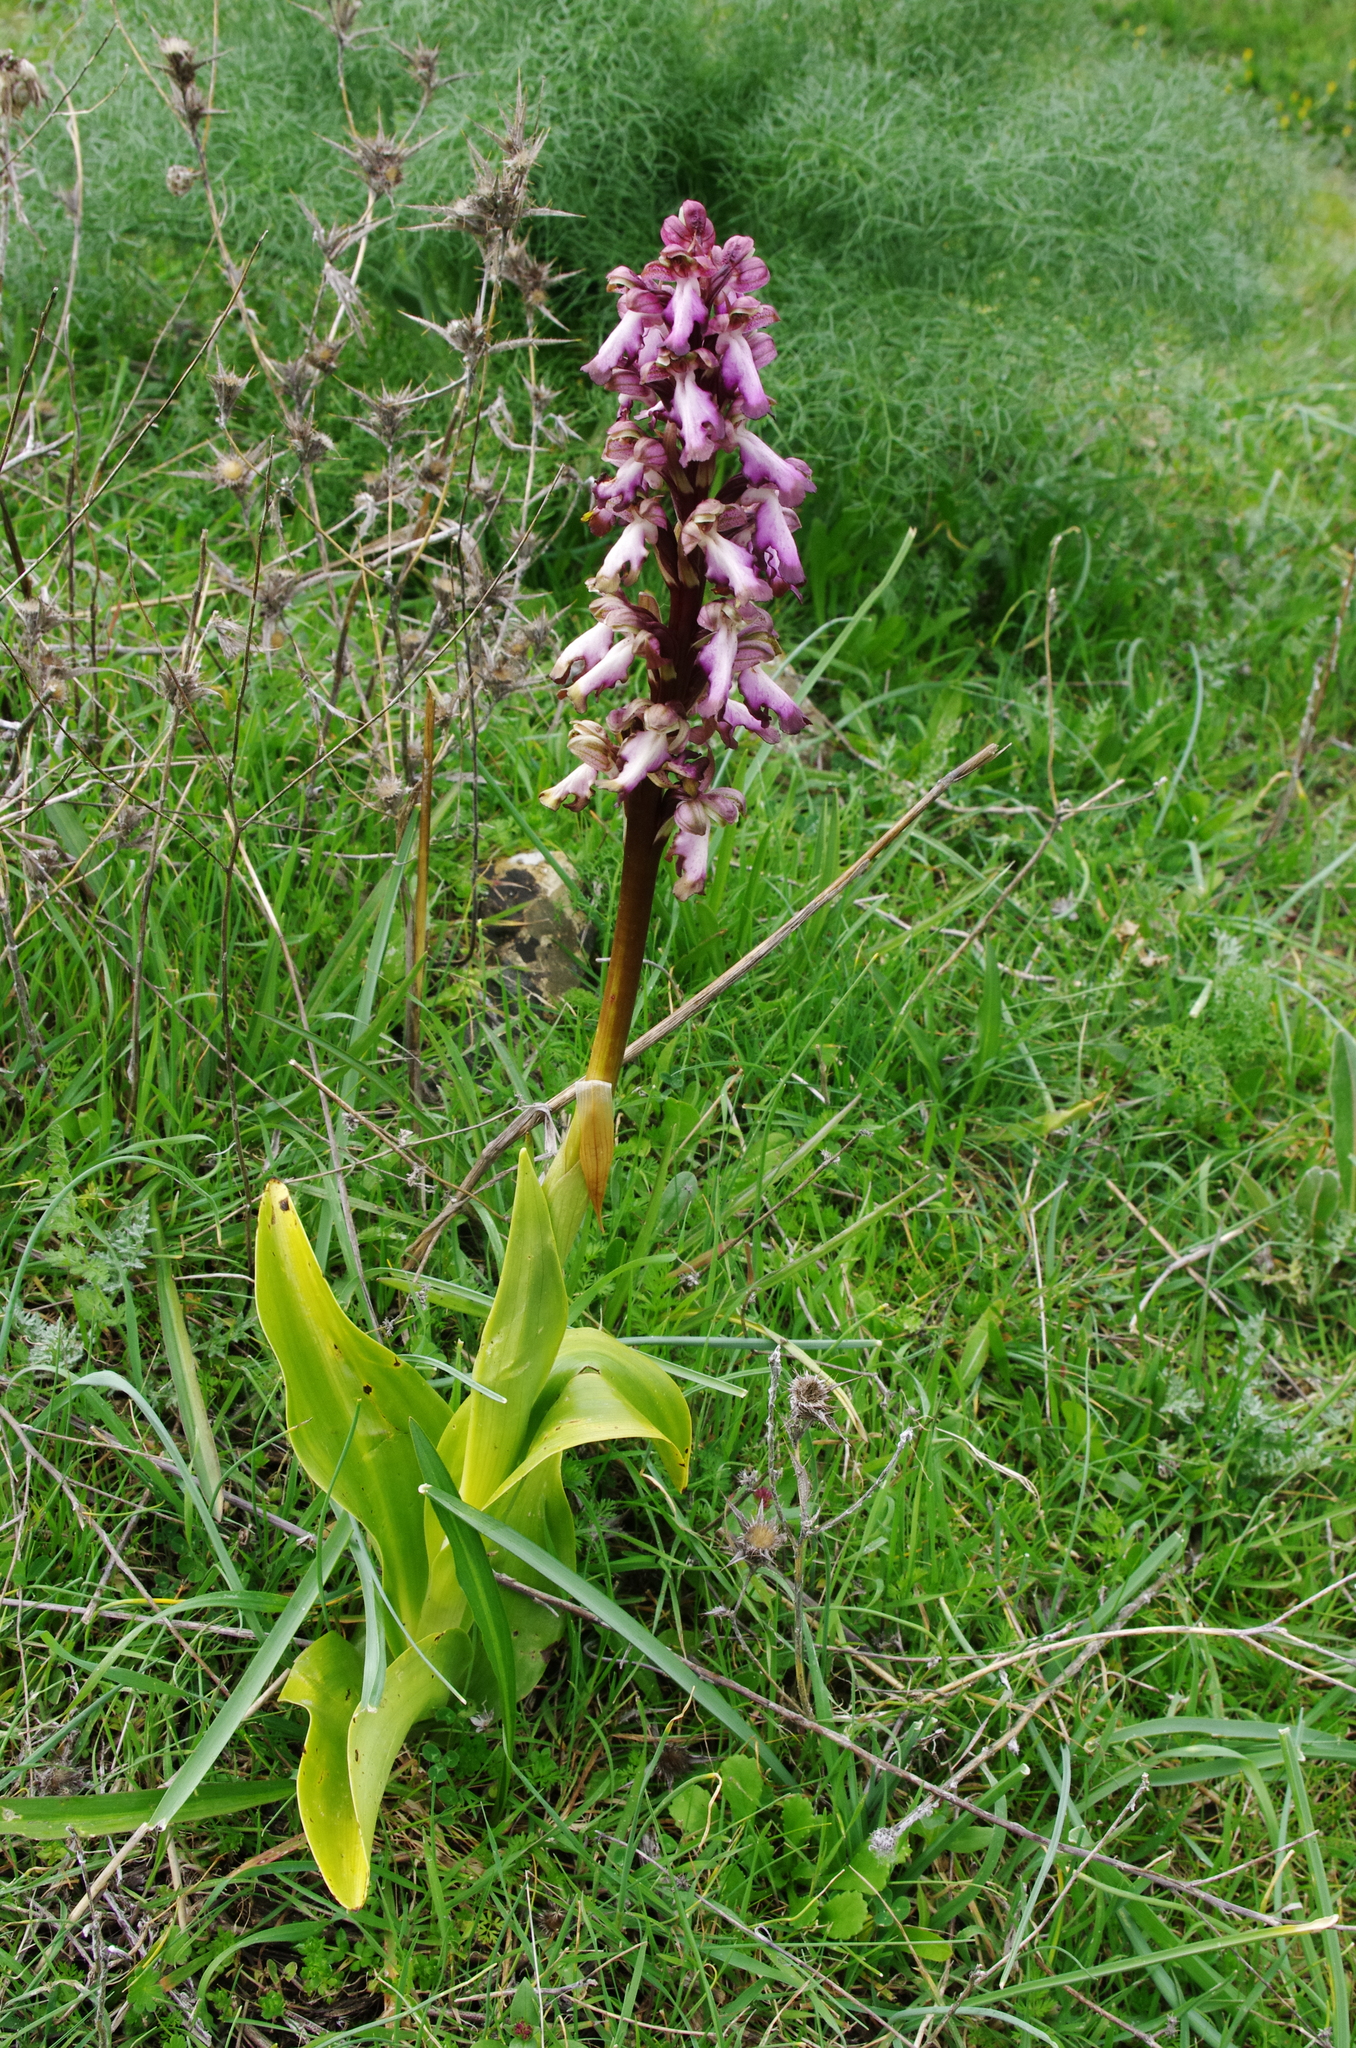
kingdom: Plantae
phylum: Tracheophyta
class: Liliopsida
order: Asparagales
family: Orchidaceae
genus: Himantoglossum
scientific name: Himantoglossum robertianum
